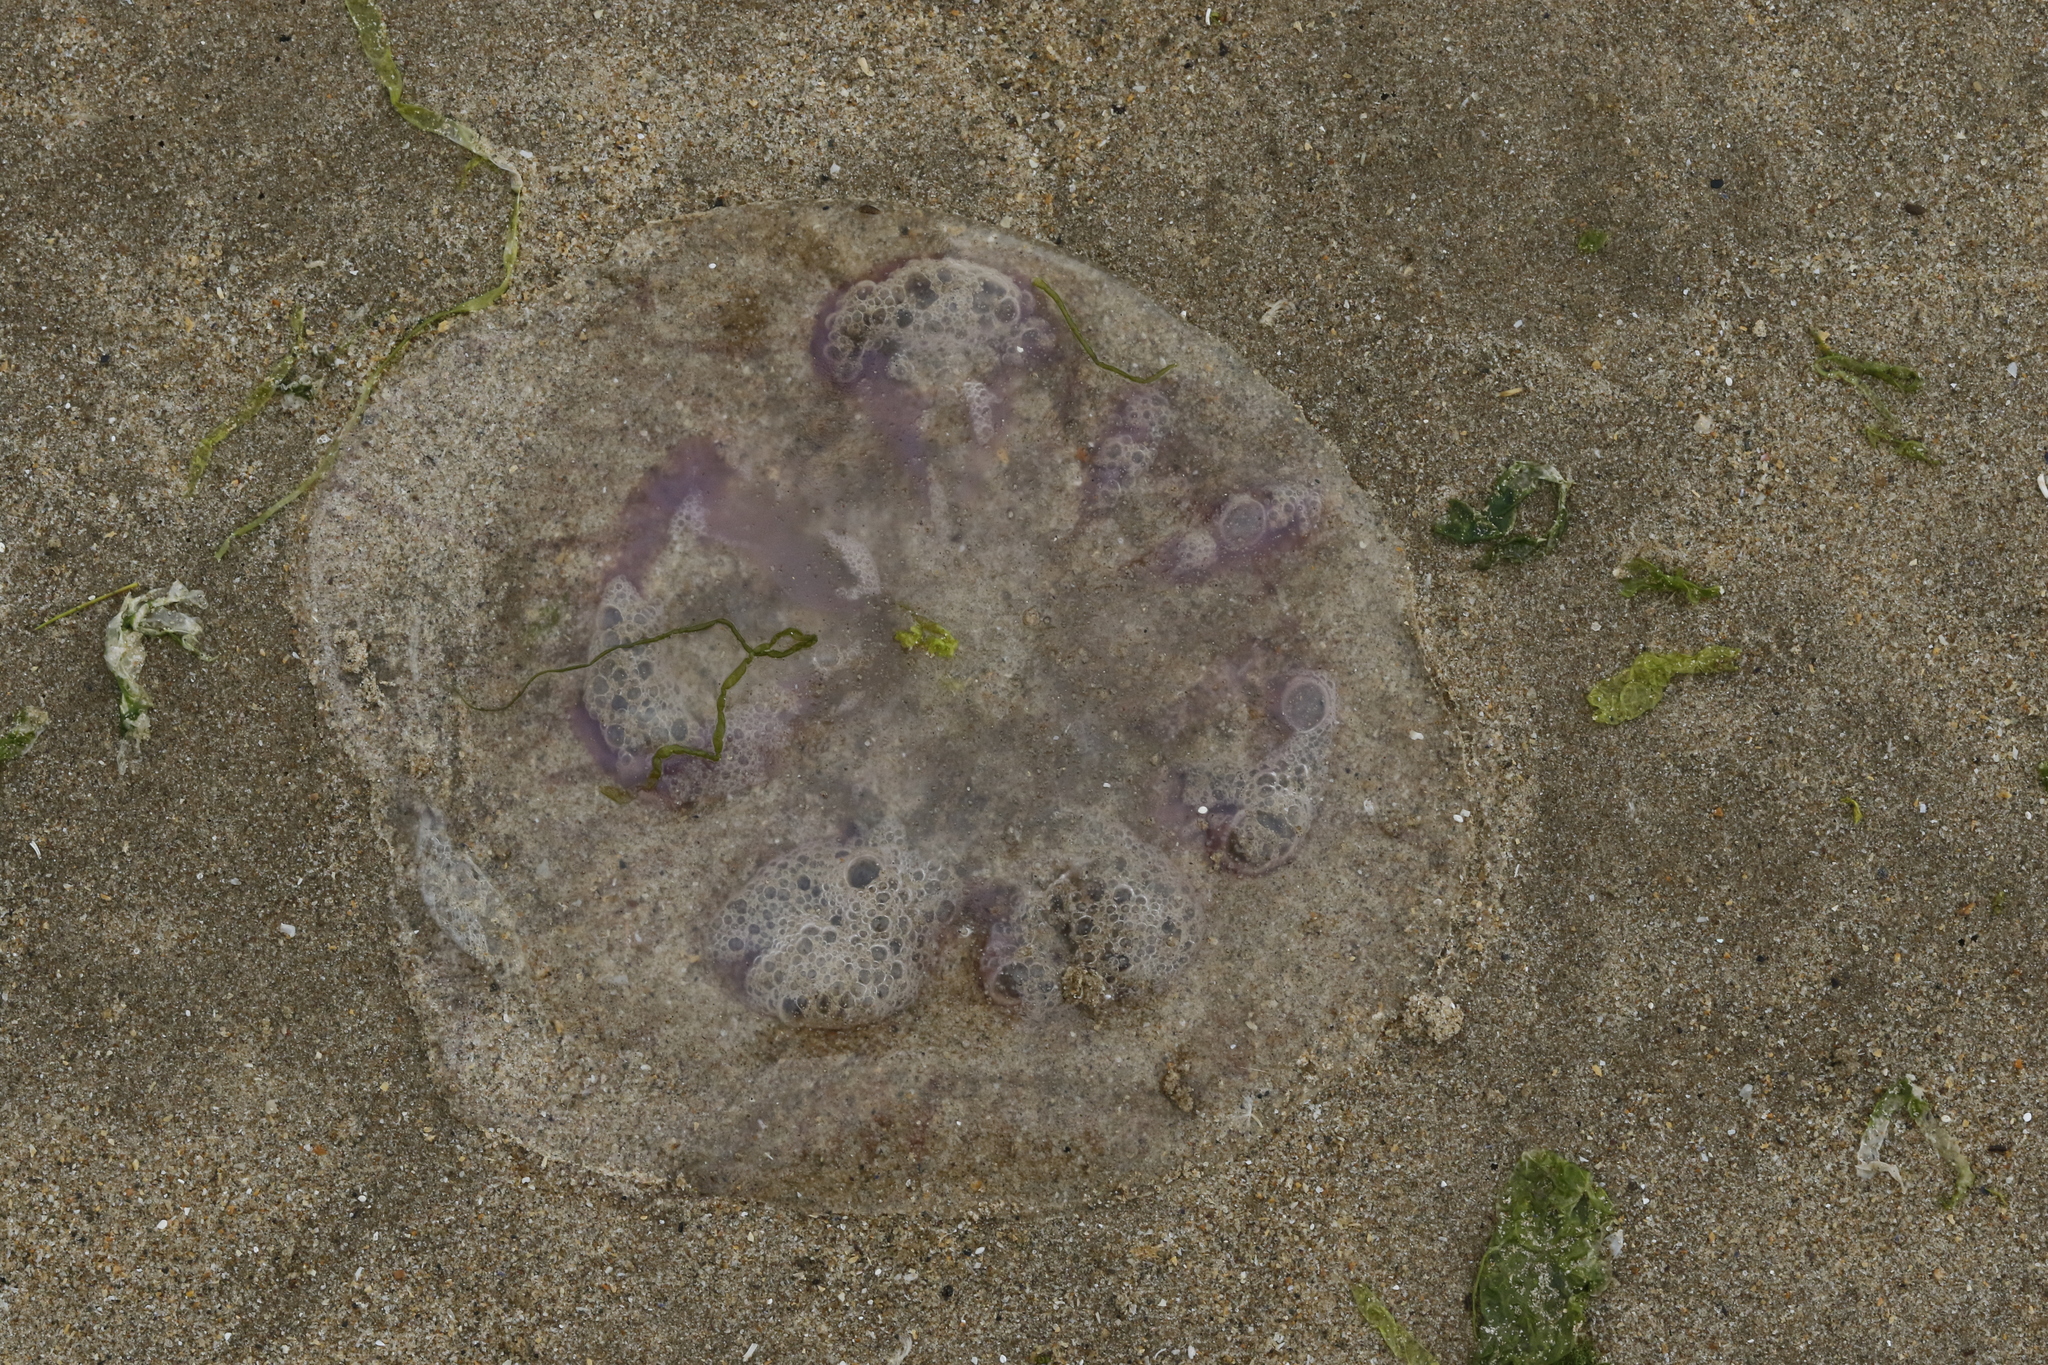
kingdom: Animalia
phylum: Cnidaria
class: Scyphozoa
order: Semaeostomeae
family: Ulmaridae
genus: Aurelia
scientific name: Aurelia aurita
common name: Moon jellyfish
